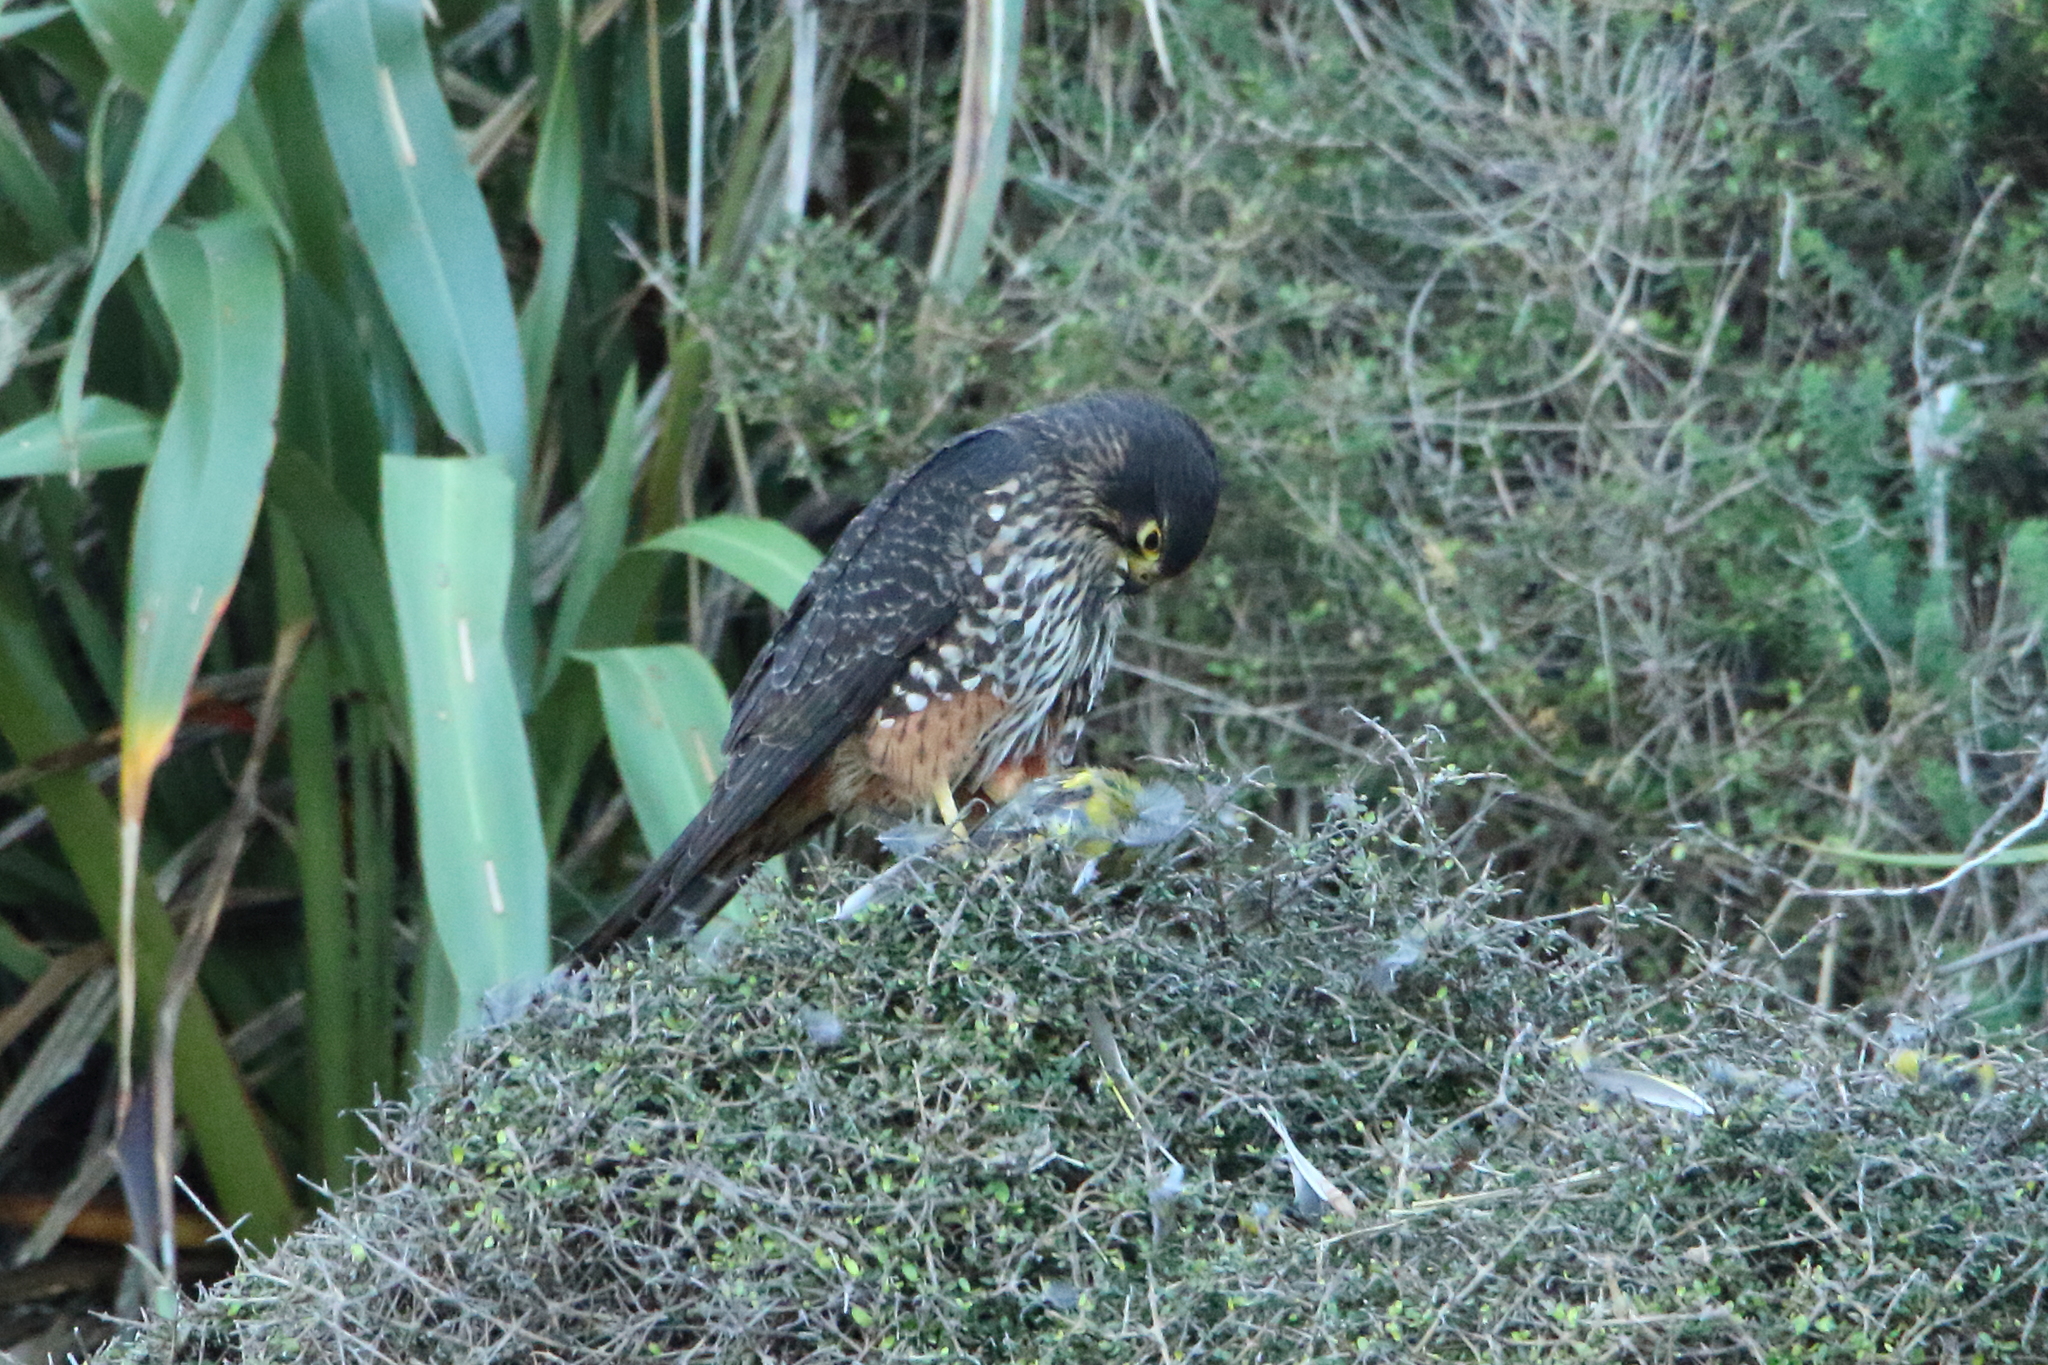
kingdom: Animalia
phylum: Chordata
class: Aves
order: Falconiformes
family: Falconidae
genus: Falco
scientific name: Falco novaeseelandiae
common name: New zealand falcon
